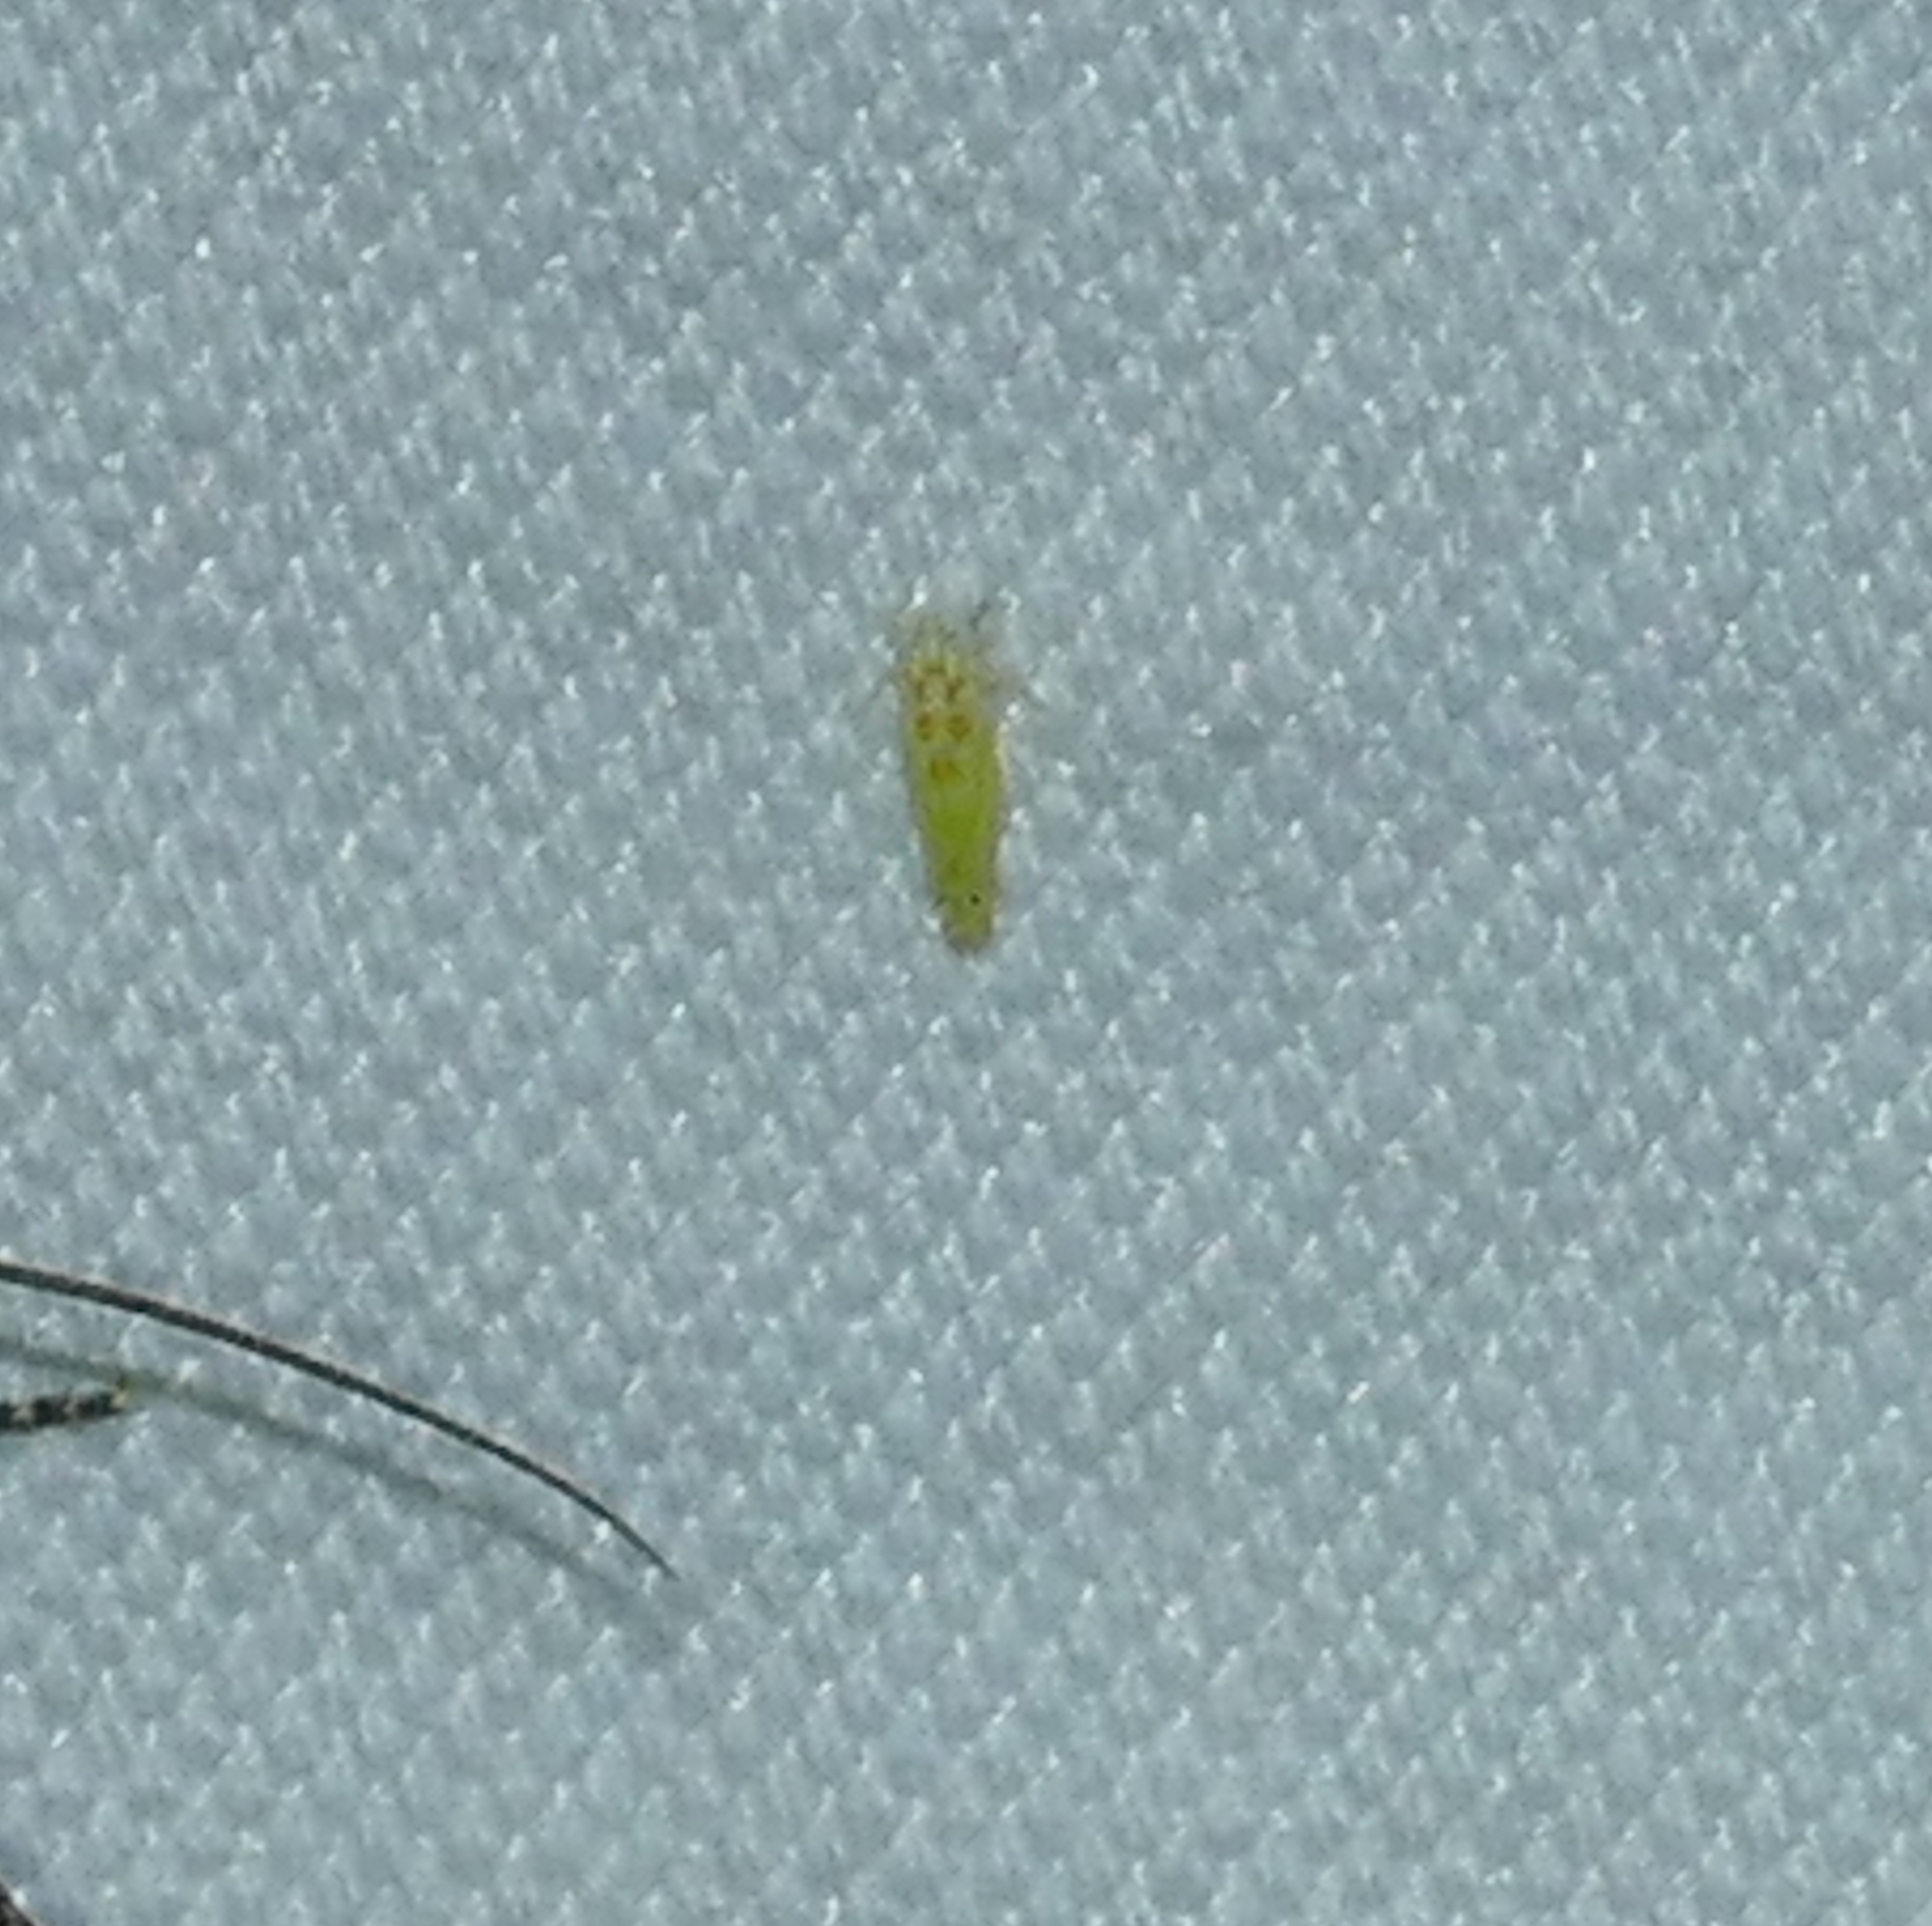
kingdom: Animalia
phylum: Arthropoda
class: Insecta
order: Hemiptera
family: Cicadellidae
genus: Alconeura
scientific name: Alconeura quadrimaculata
